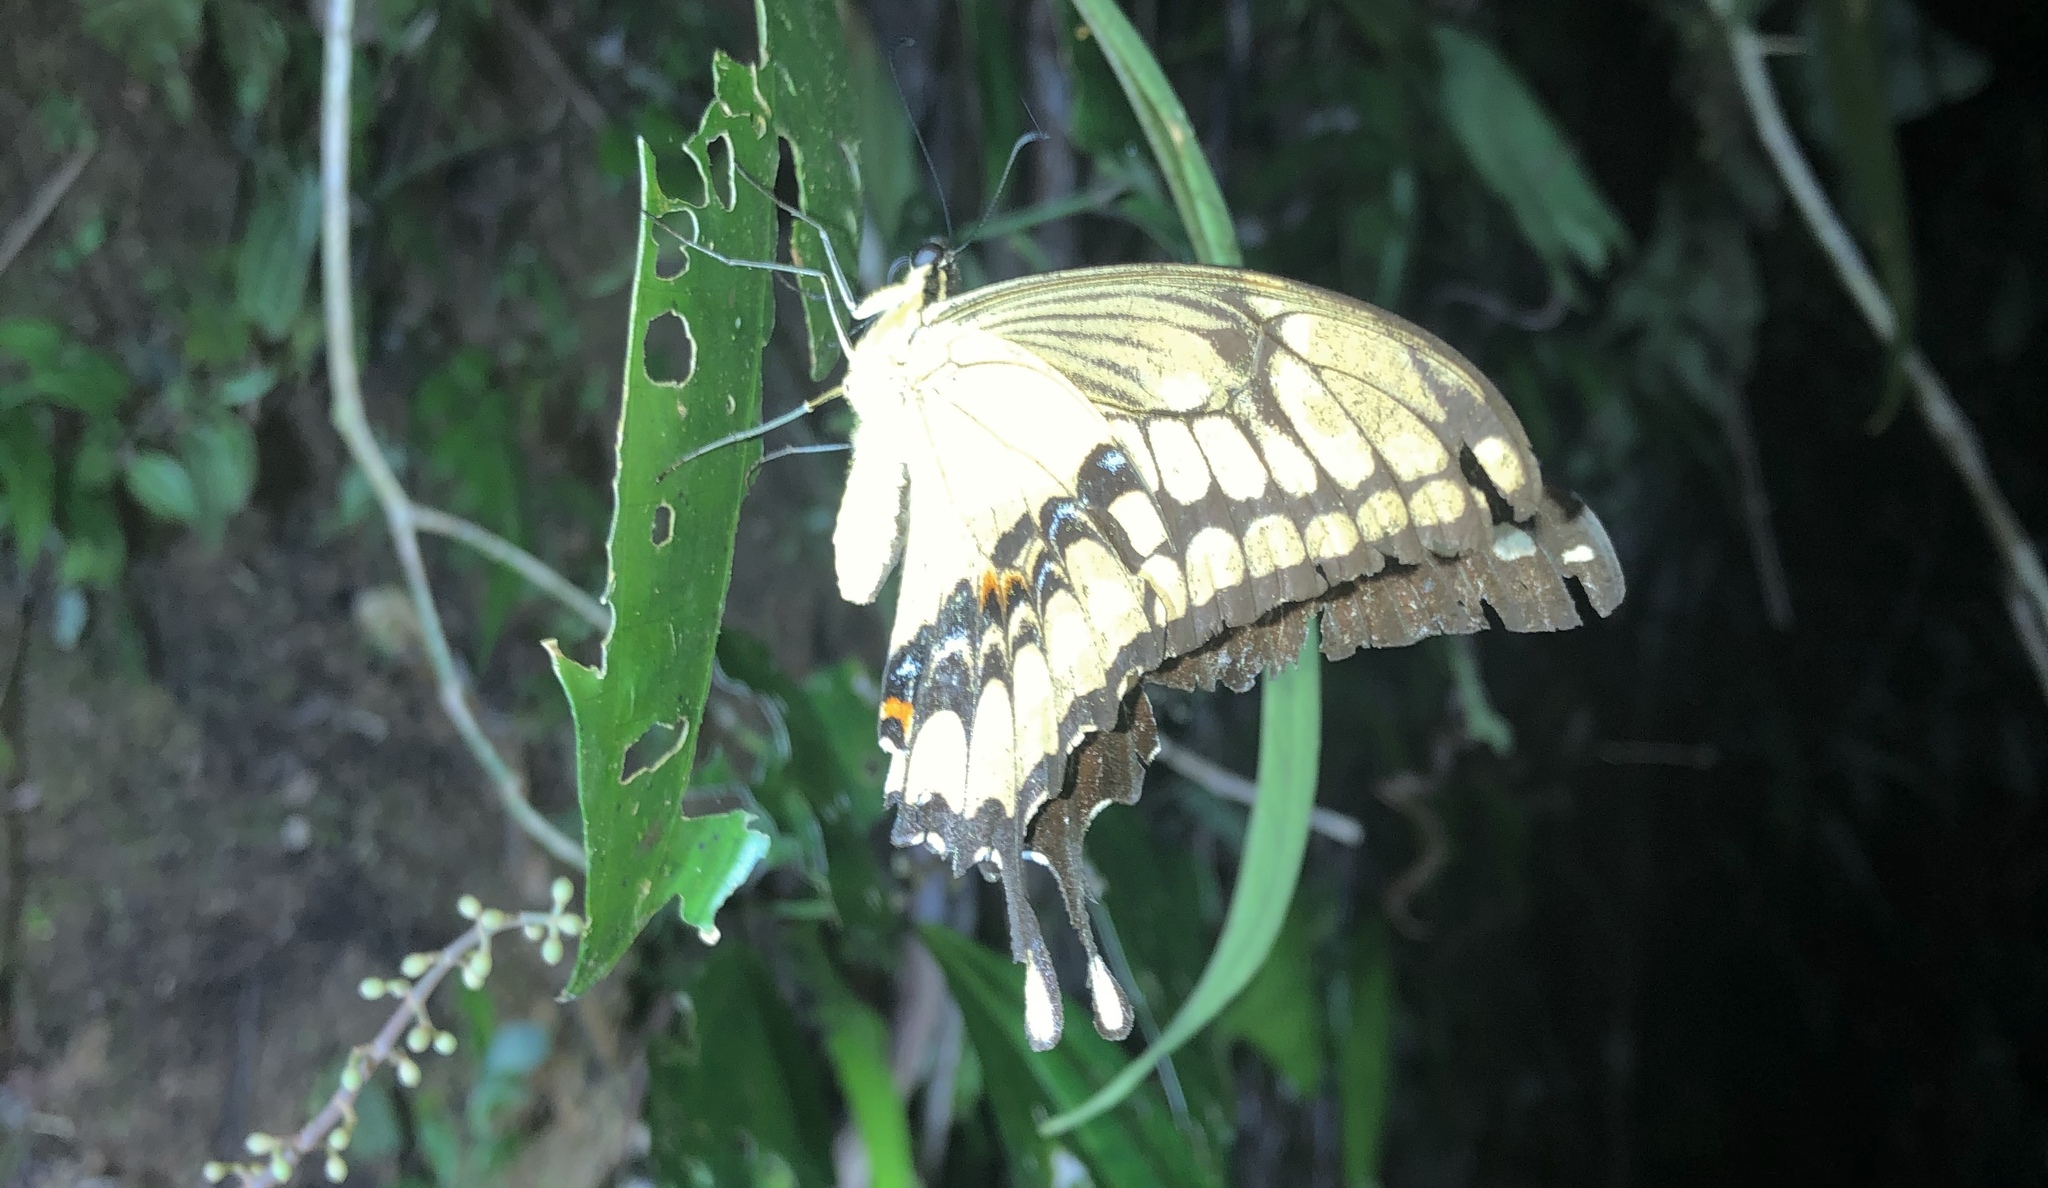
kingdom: Animalia
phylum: Arthropoda
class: Insecta
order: Lepidoptera
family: Papilionidae
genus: Papilio
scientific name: Papilio thoas
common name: King swallowtail
